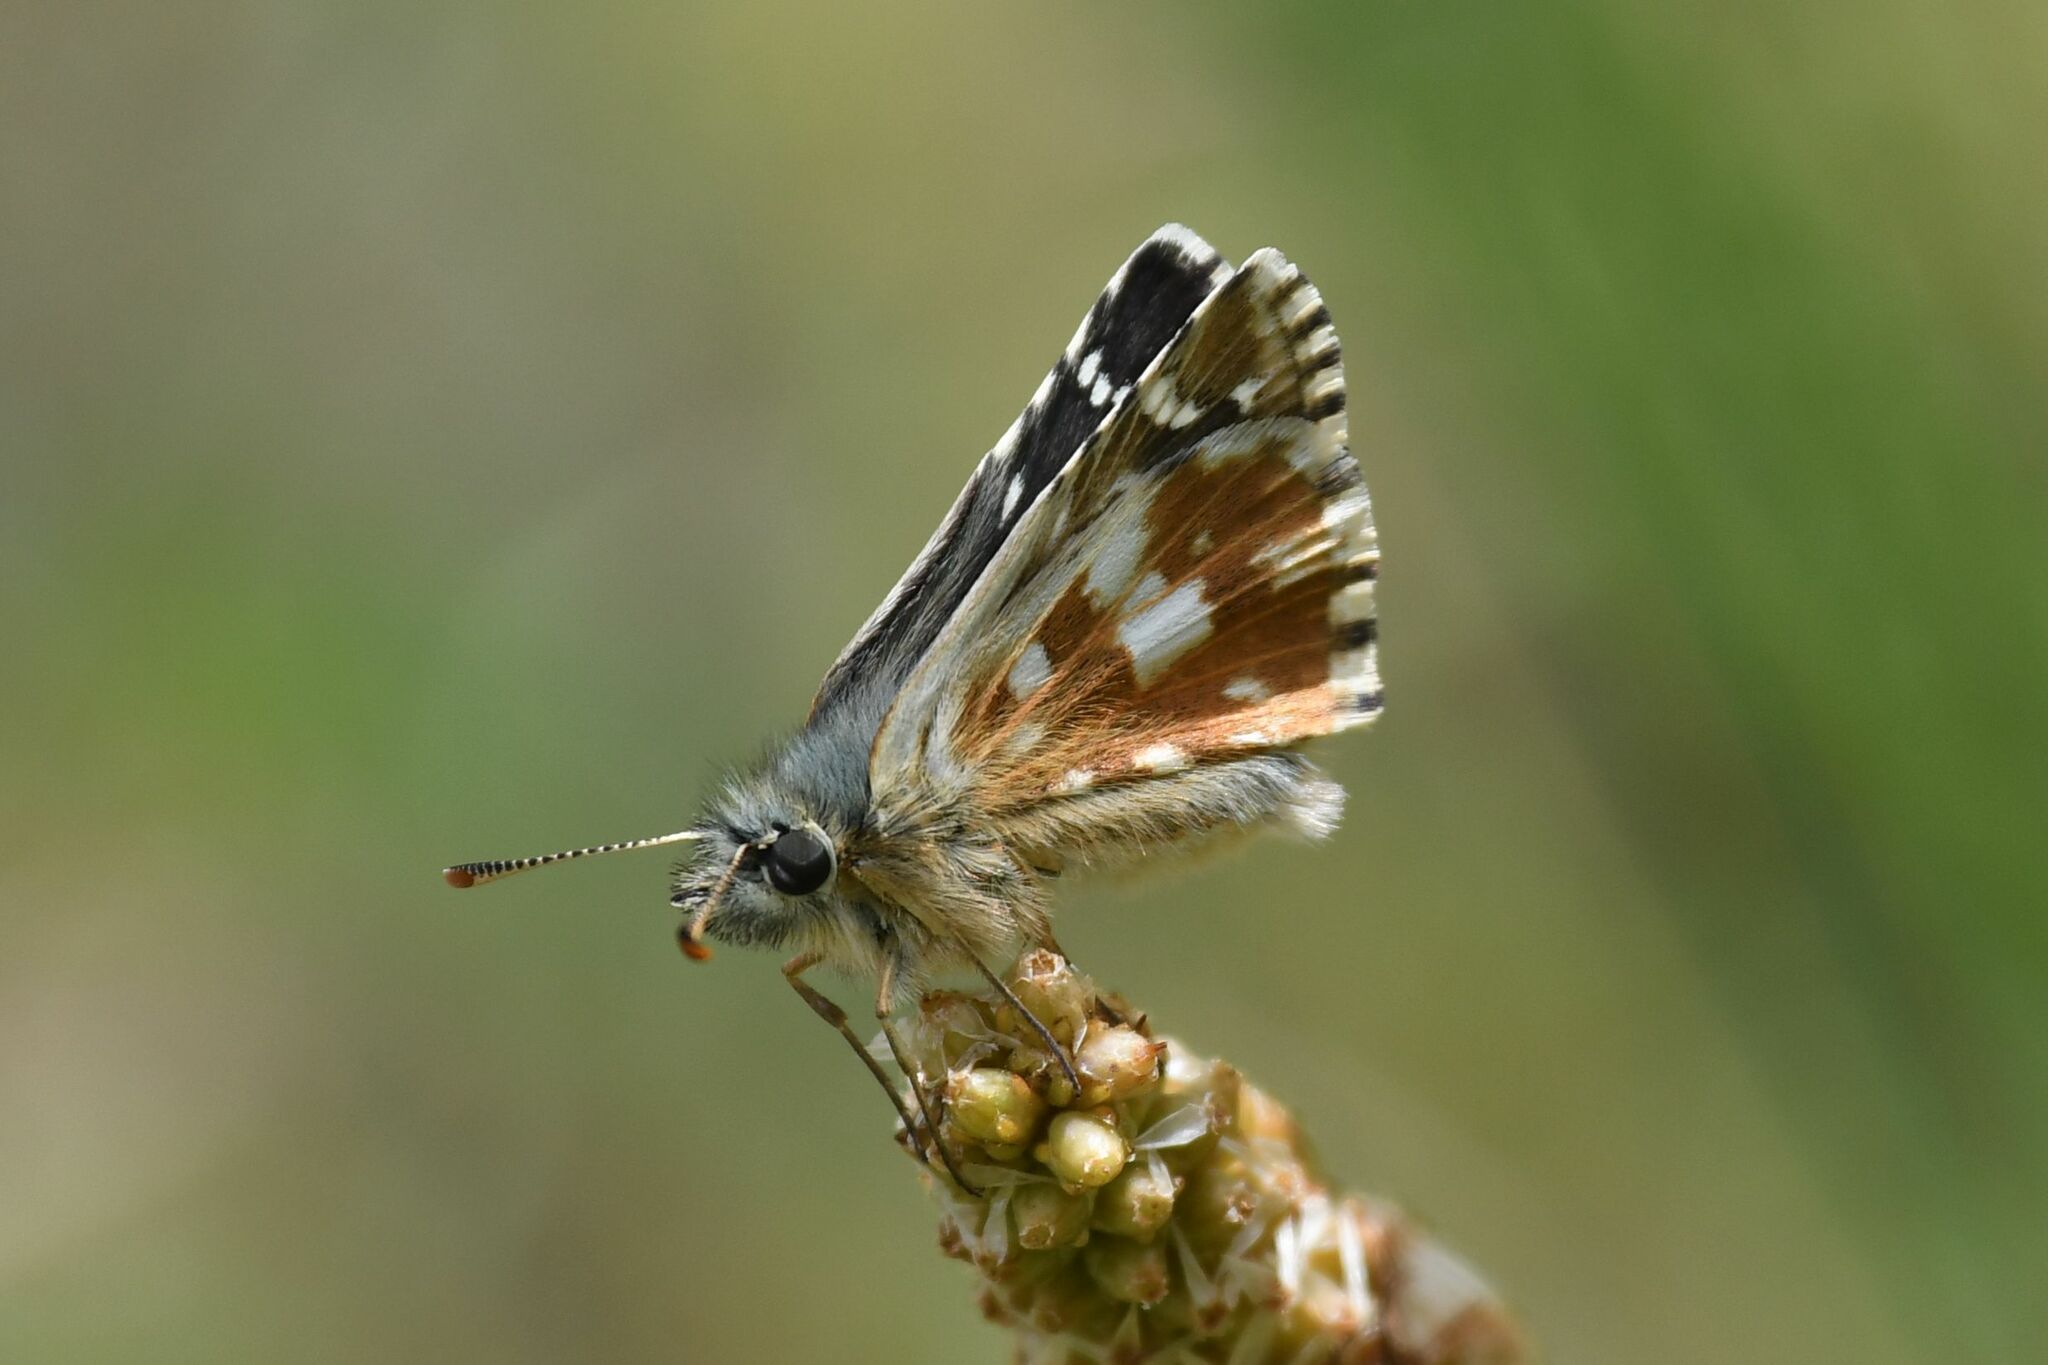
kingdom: Animalia
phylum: Arthropoda
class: Insecta
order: Lepidoptera
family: Hesperiidae
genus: Pyrgus
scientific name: Pyrgus carlinae
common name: Carline skipper
